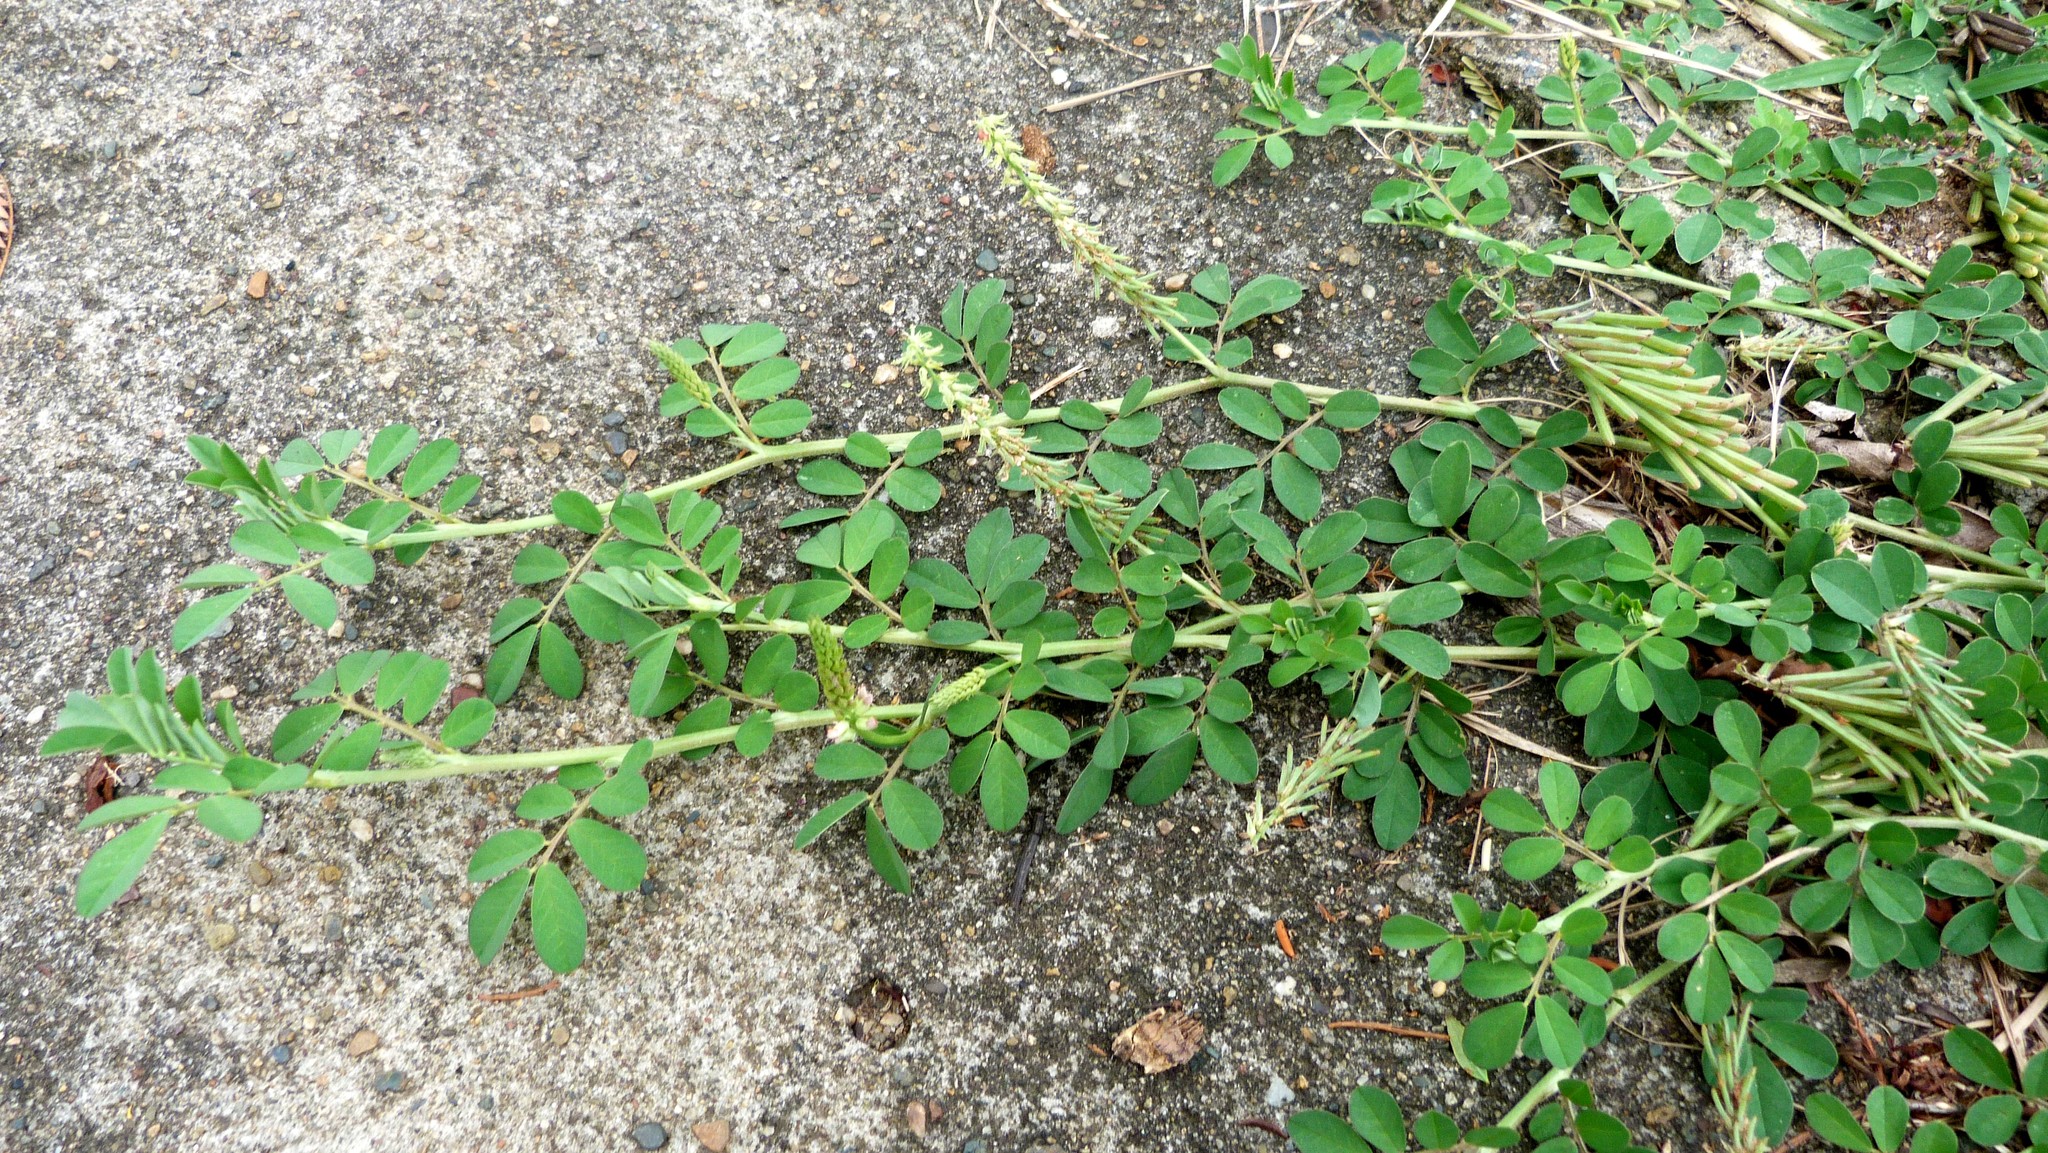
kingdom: Plantae
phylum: Tracheophyta
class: Magnoliopsida
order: Fabales
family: Fabaceae
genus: Indigofera
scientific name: Indigofera spicata
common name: Creeping indigo
